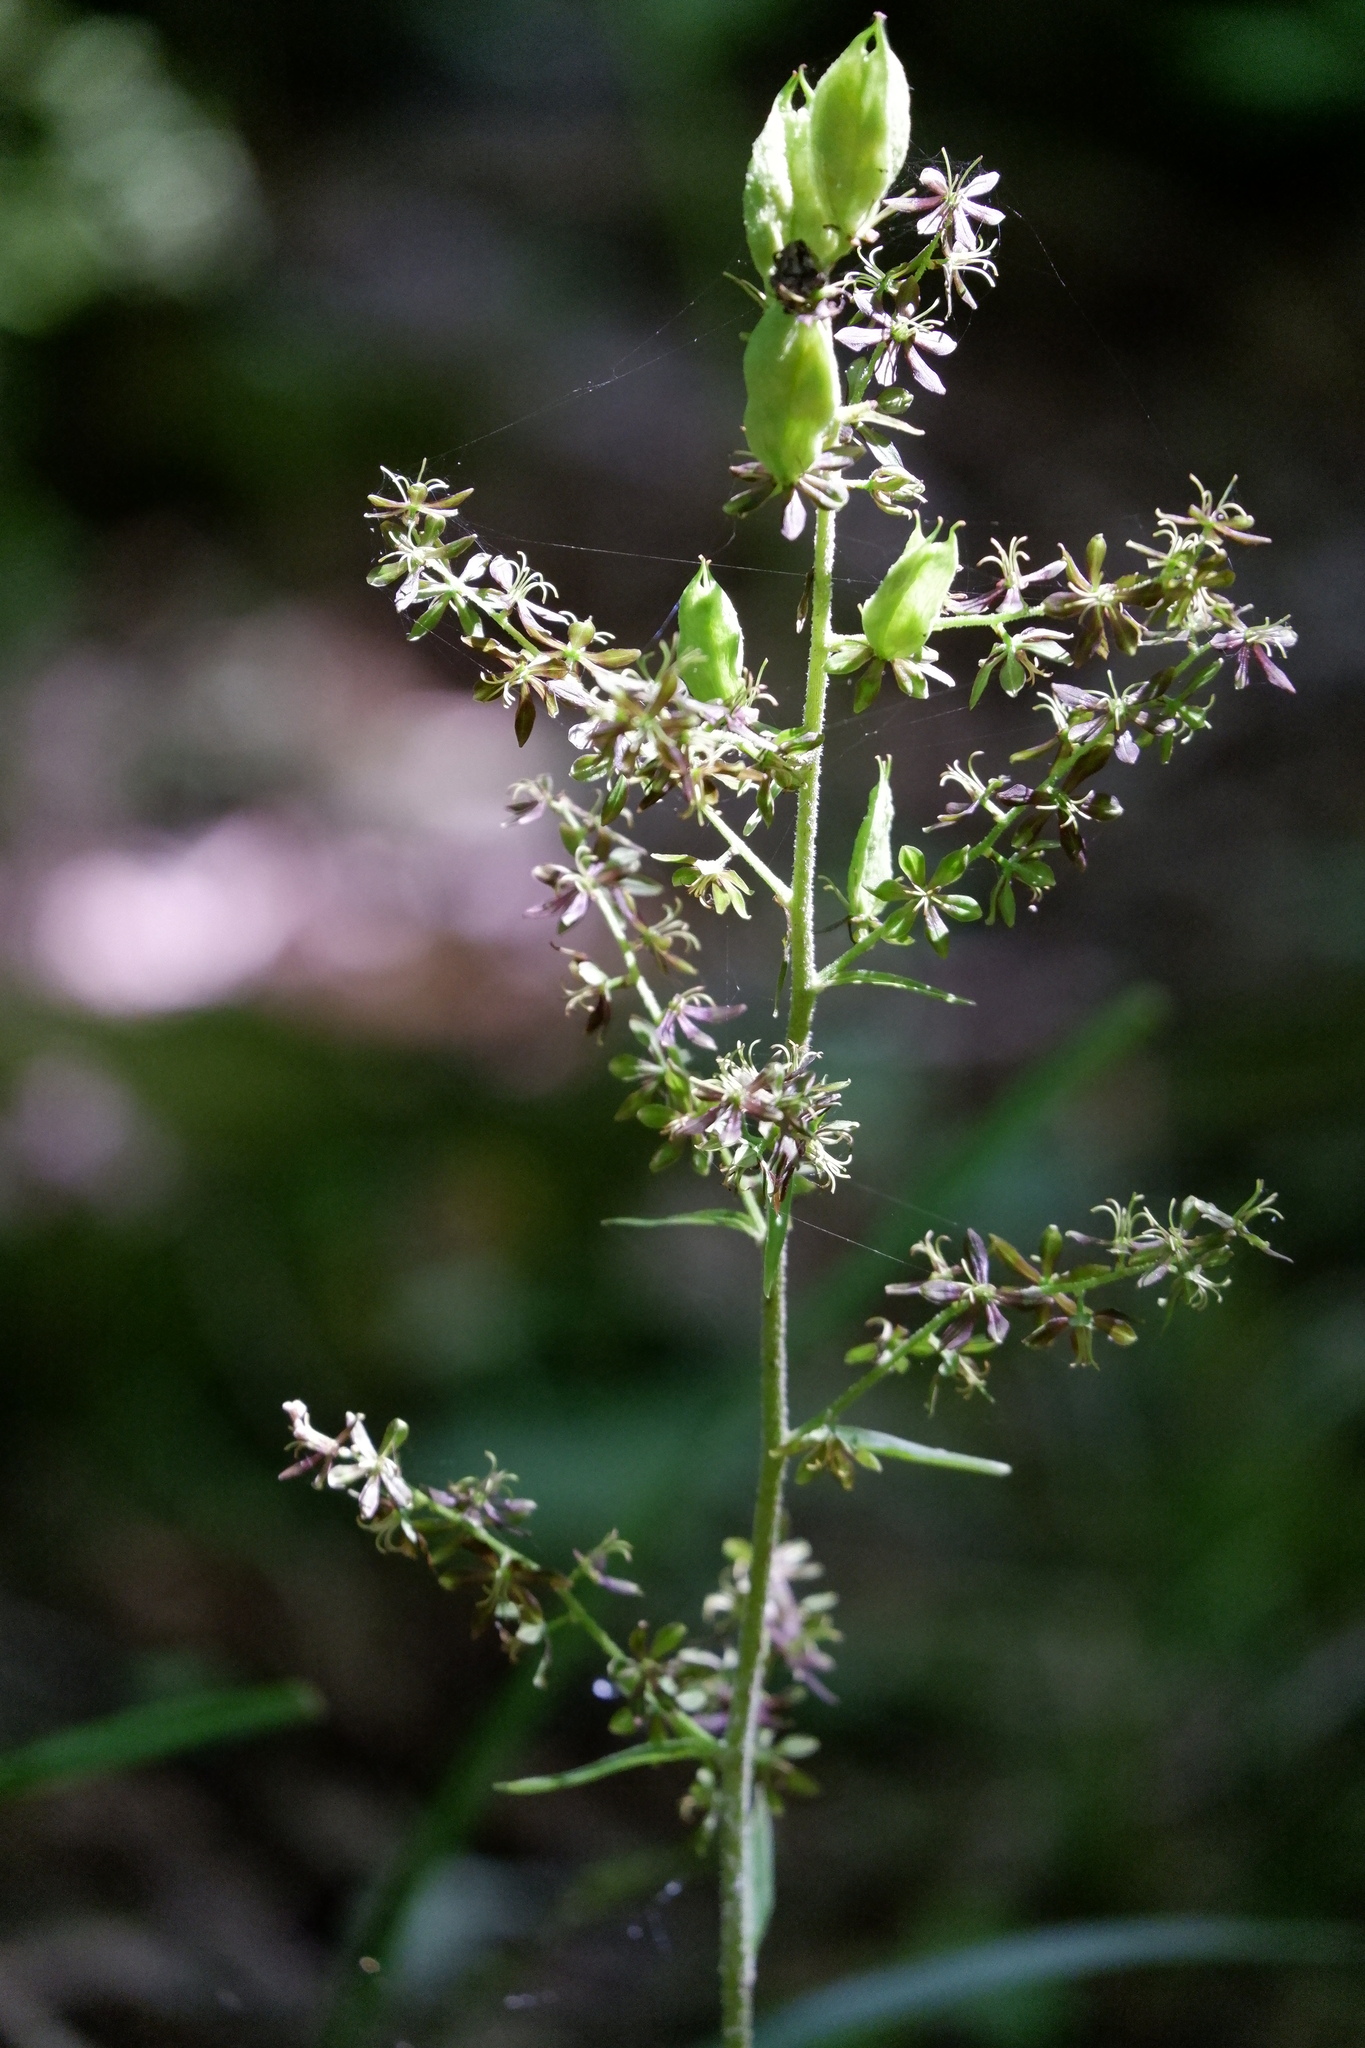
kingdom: Plantae
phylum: Tracheophyta
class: Liliopsida
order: Liliales
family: Melanthiaceae
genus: Veratrum
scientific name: Veratrum woodii
